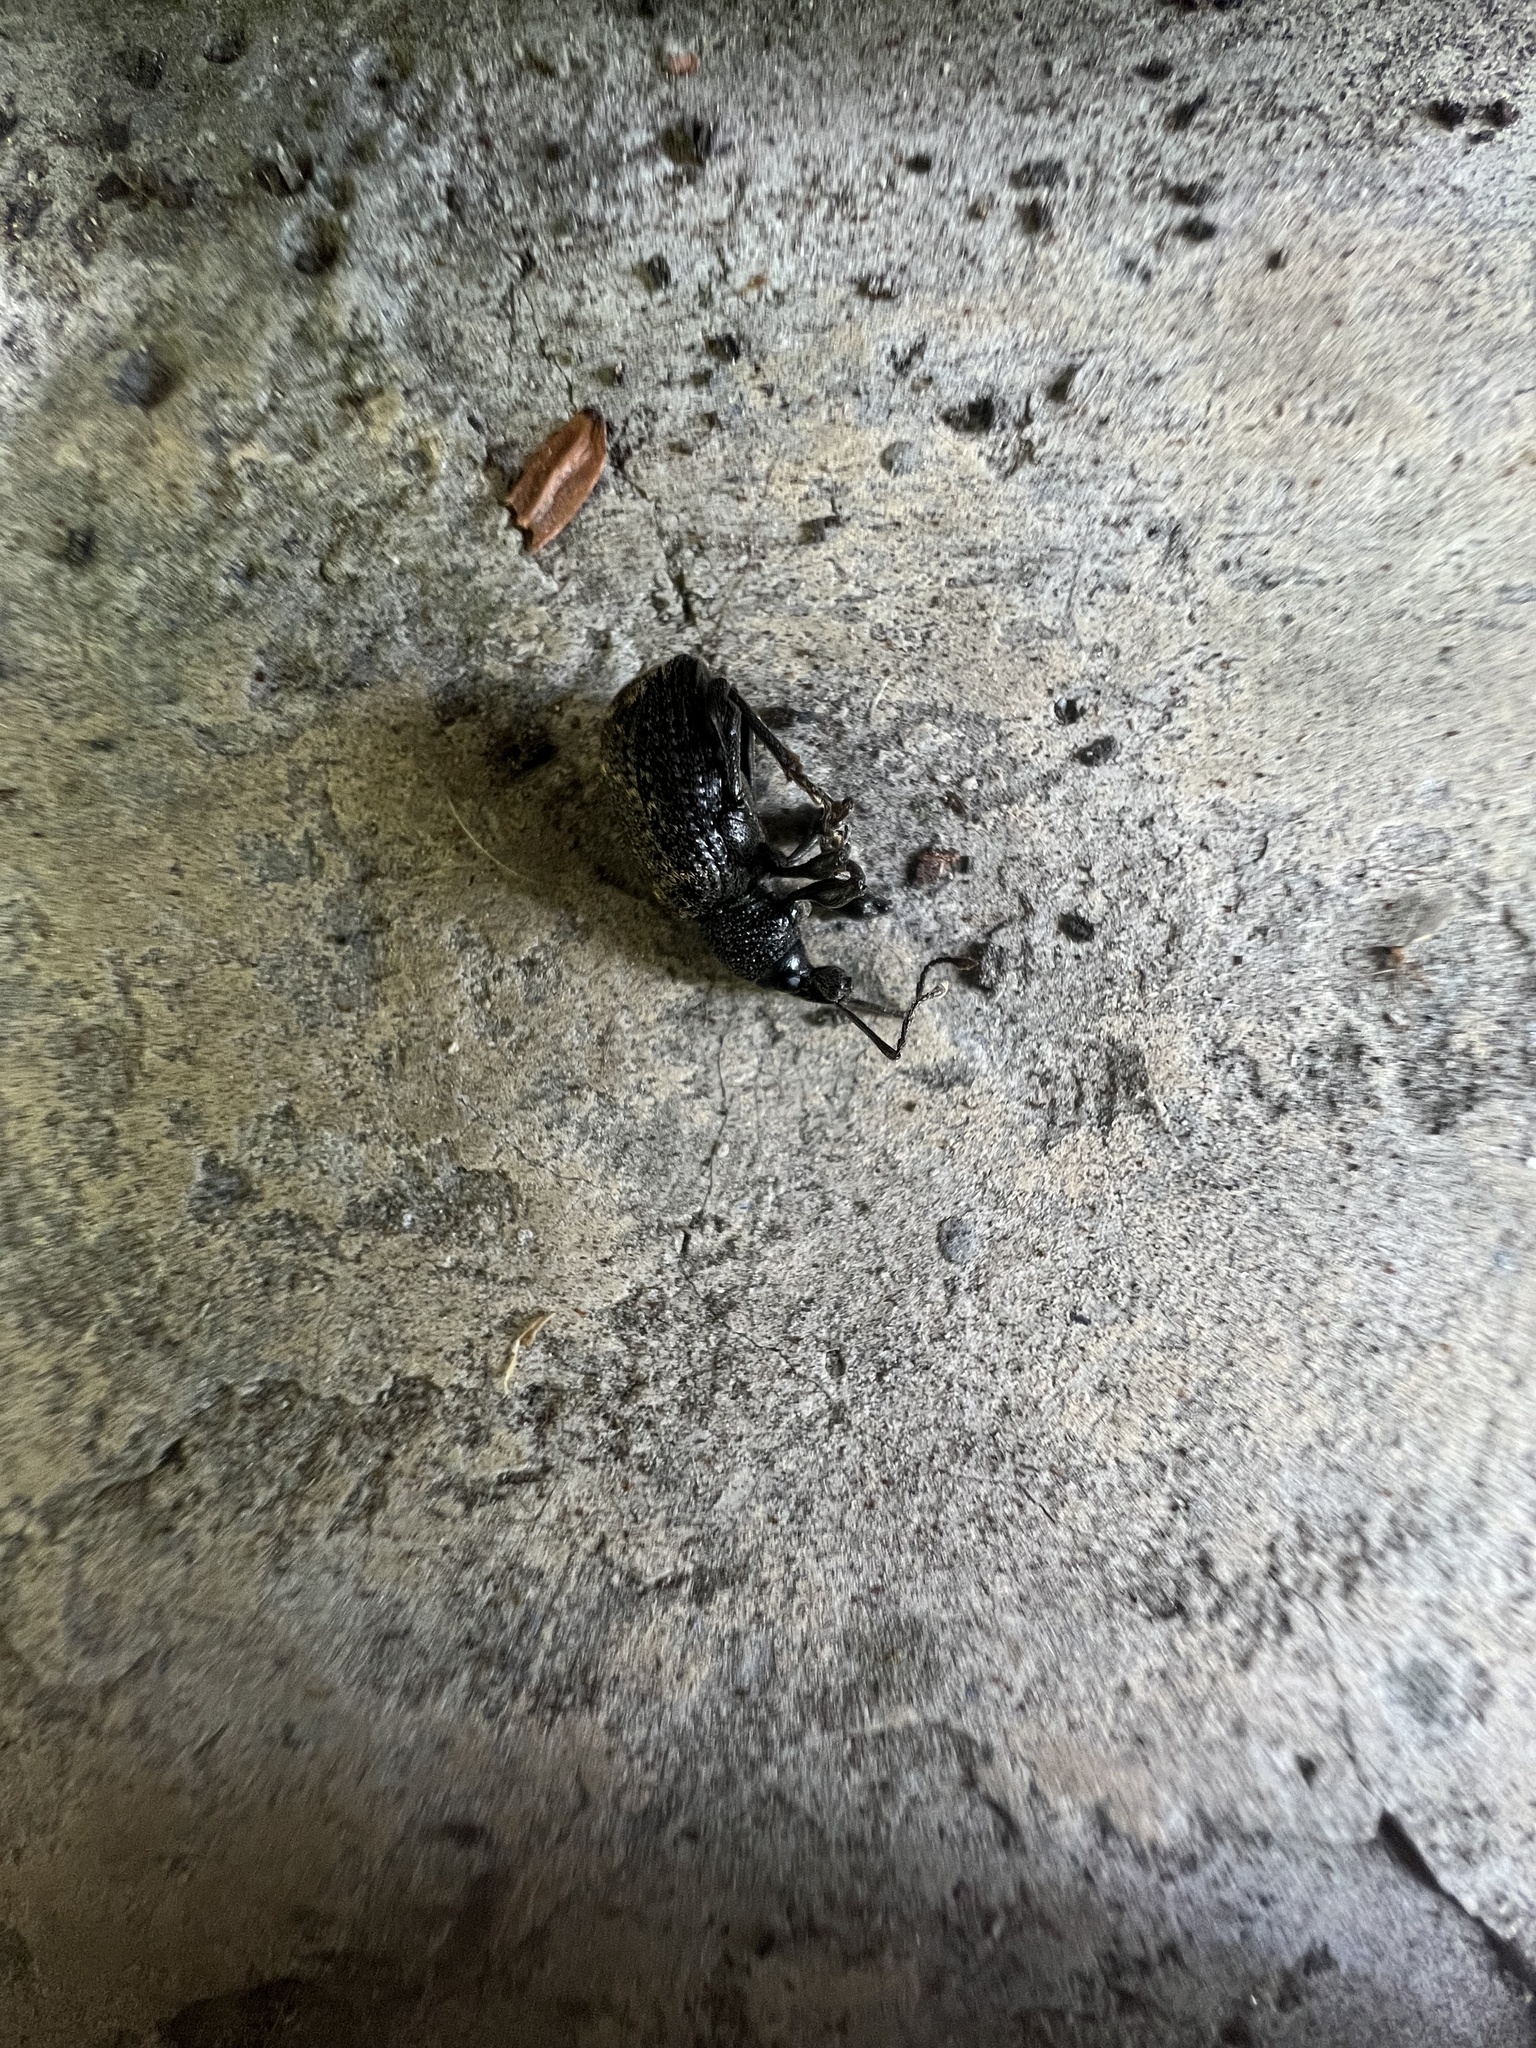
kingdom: Animalia
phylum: Arthropoda
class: Insecta
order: Coleoptera
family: Curculionidae
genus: Otiorhynchus
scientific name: Otiorhynchus sulcatus
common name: Black vine weevil
